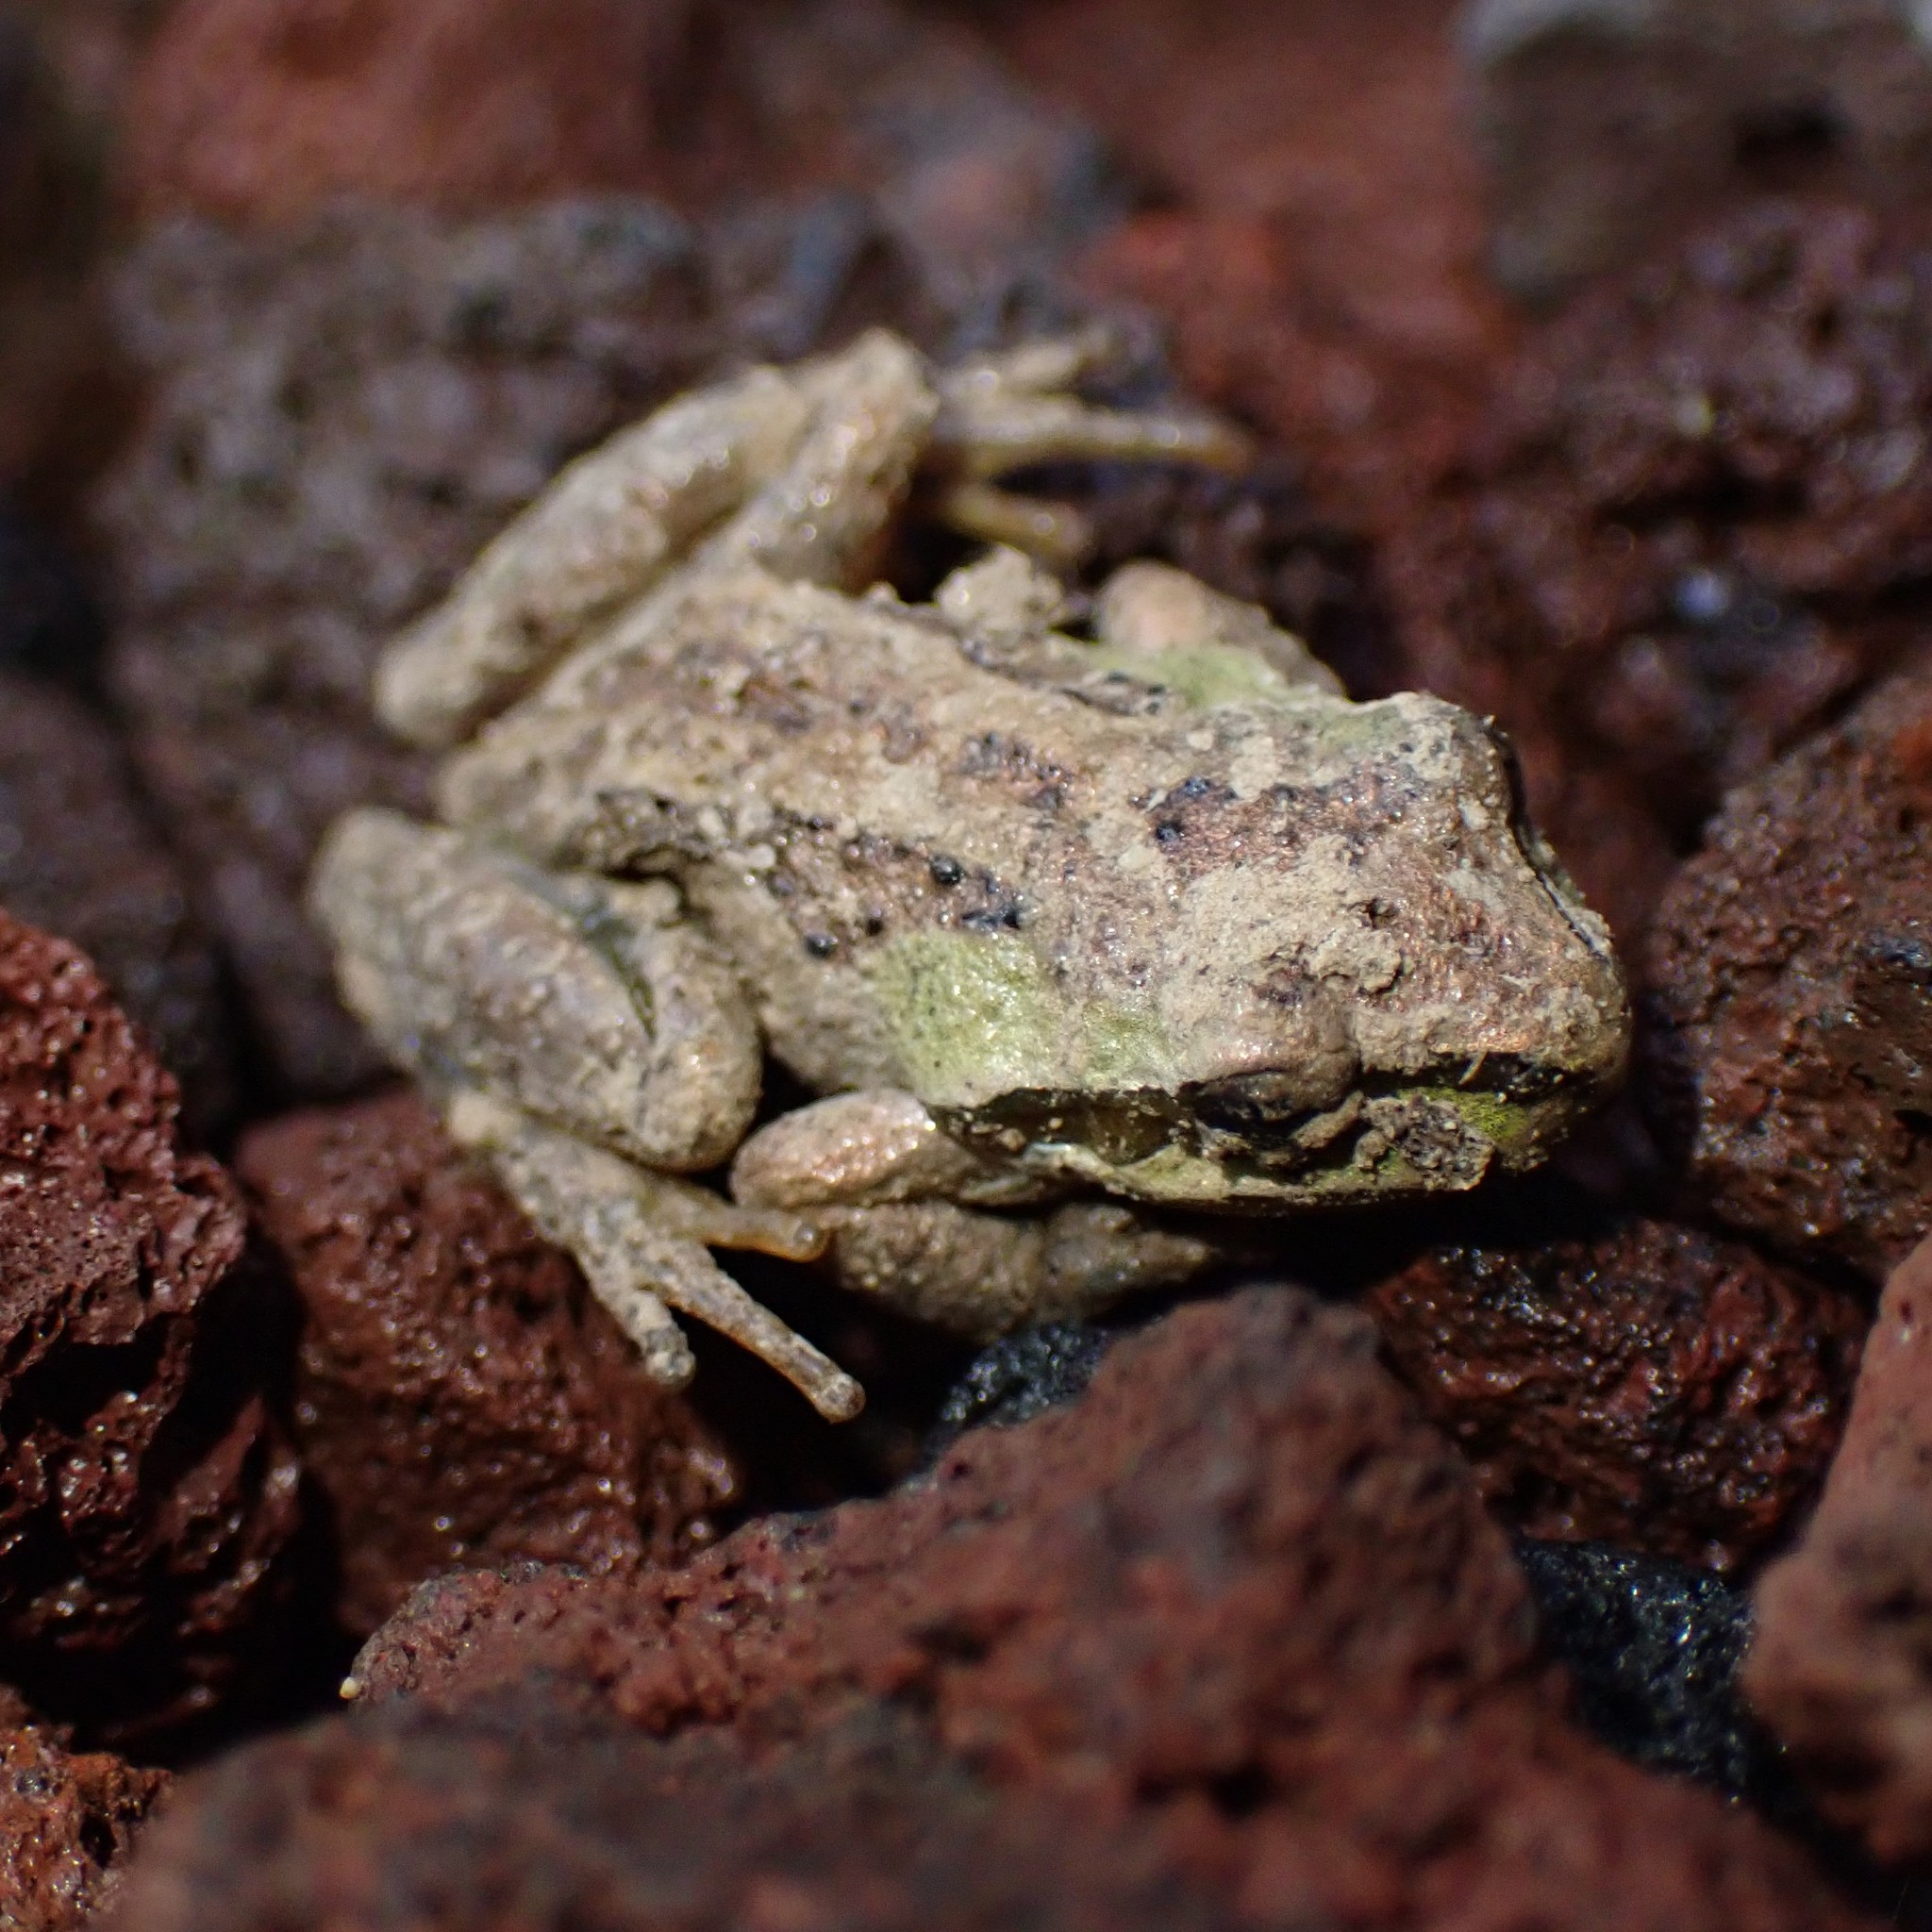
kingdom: Animalia
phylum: Chordata
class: Amphibia
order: Anura
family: Hylidae
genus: Pseudacris
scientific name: Pseudacris regilla
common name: Pacific chorus frog
